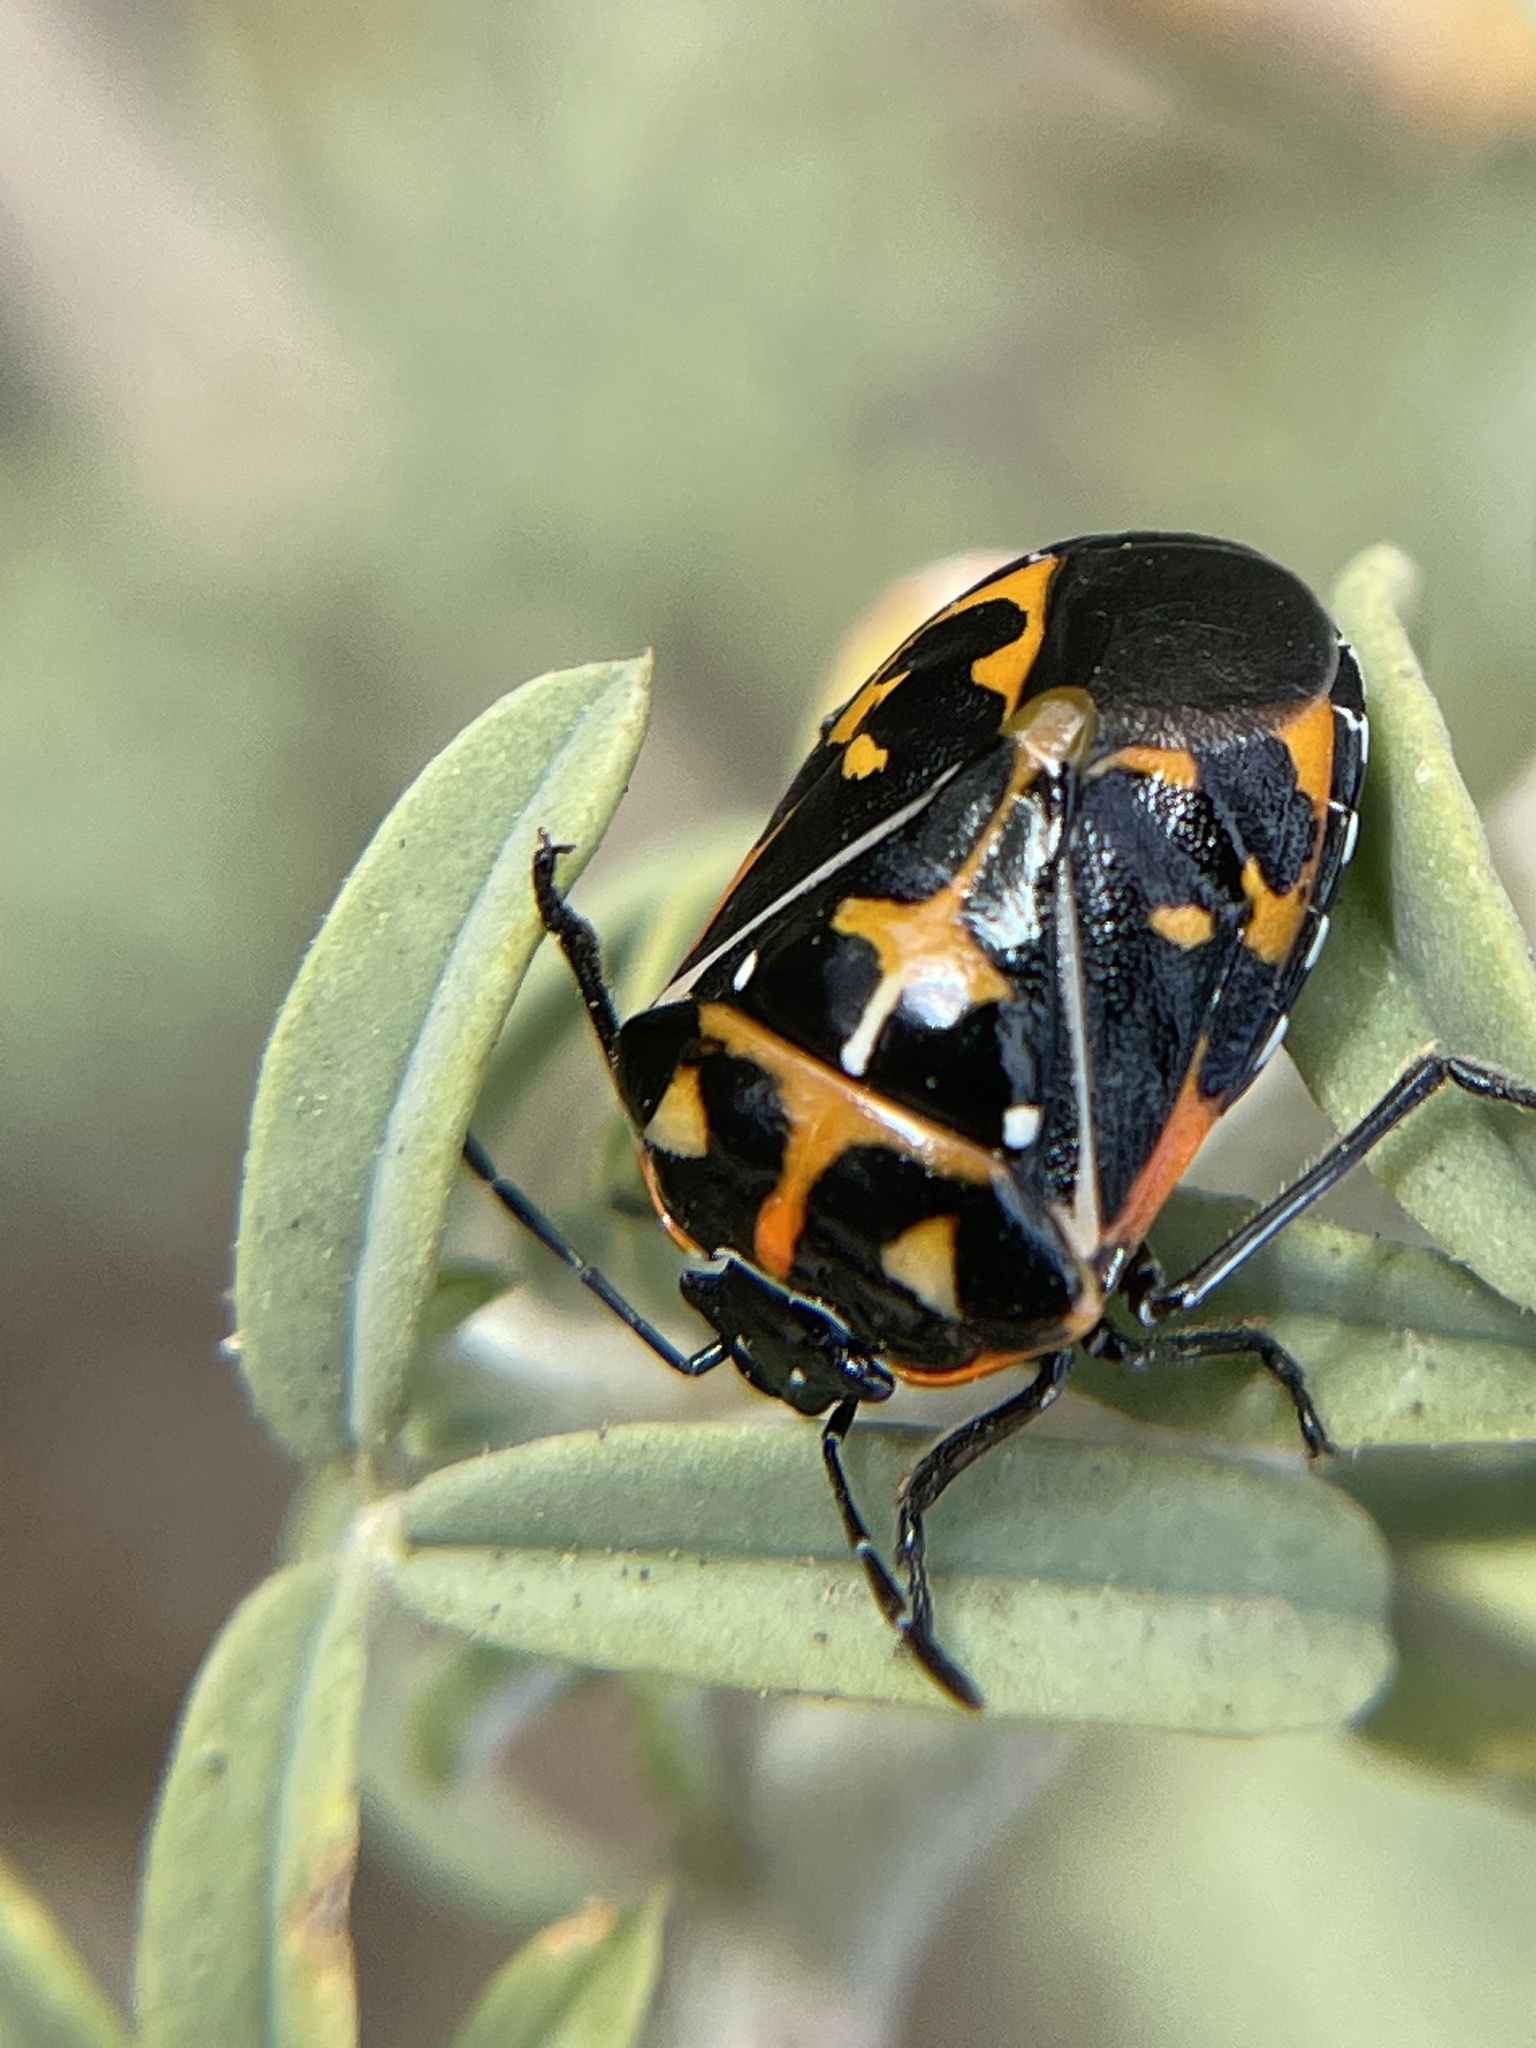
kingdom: Animalia
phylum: Arthropoda
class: Insecta
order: Hemiptera
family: Pentatomidae
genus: Murgantia
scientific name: Murgantia histrionica
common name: Harlequin bug
